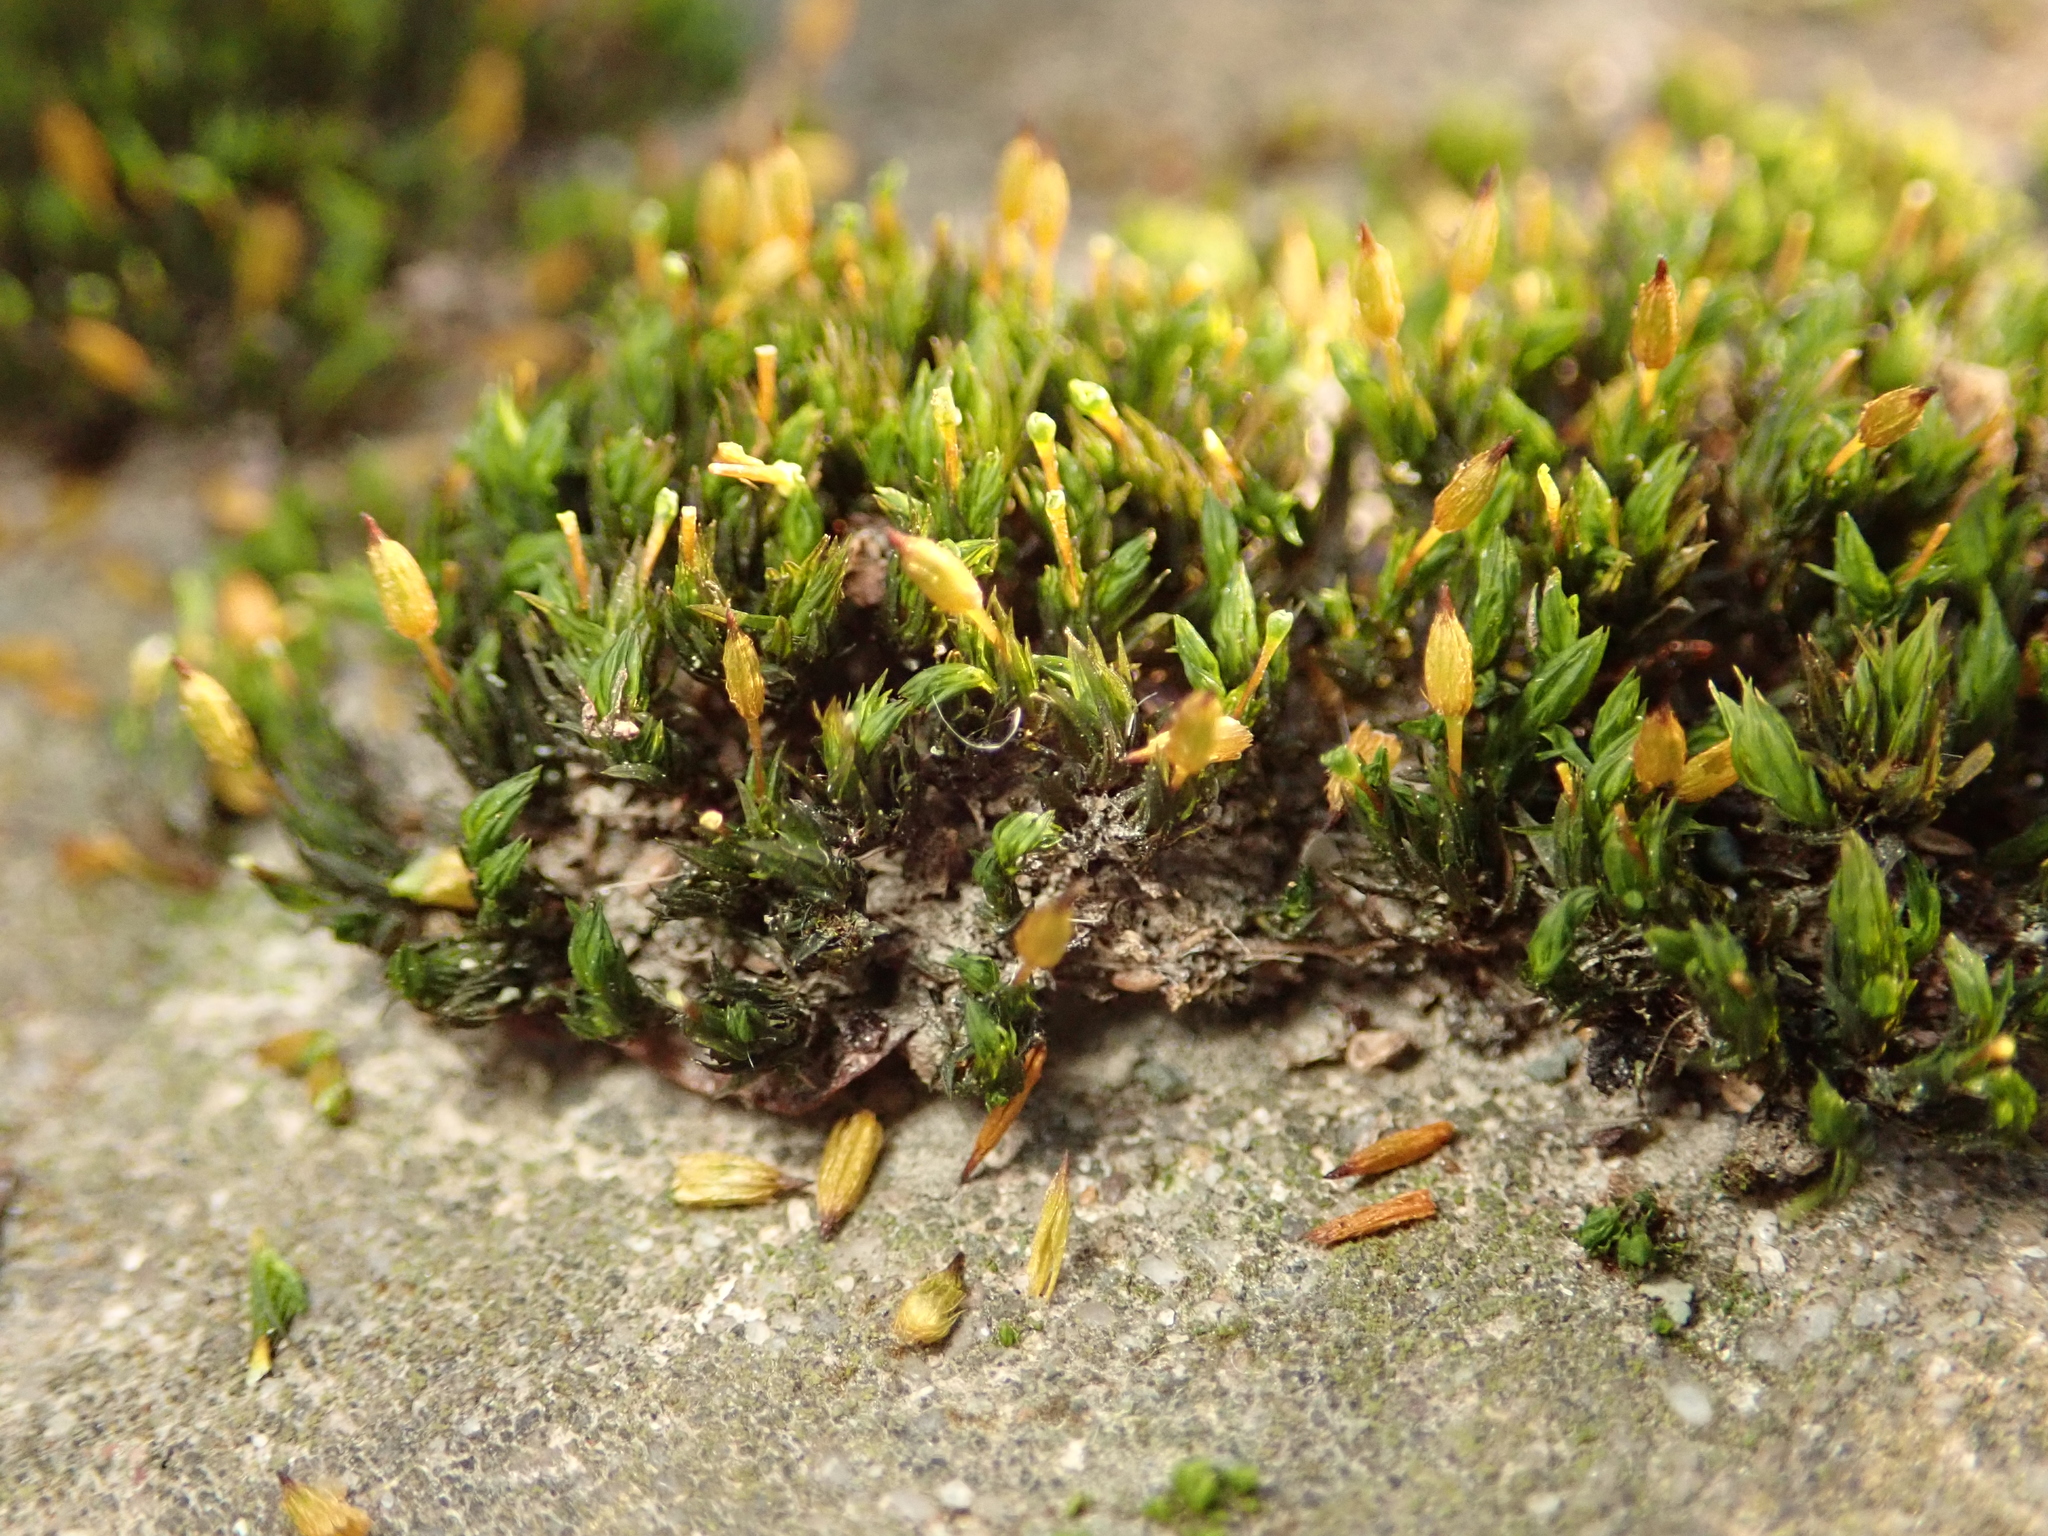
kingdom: Plantae
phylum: Bryophyta
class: Bryopsida
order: Orthotrichales
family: Orthotrichaceae
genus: Orthotrichum
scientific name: Orthotrichum anomalum
